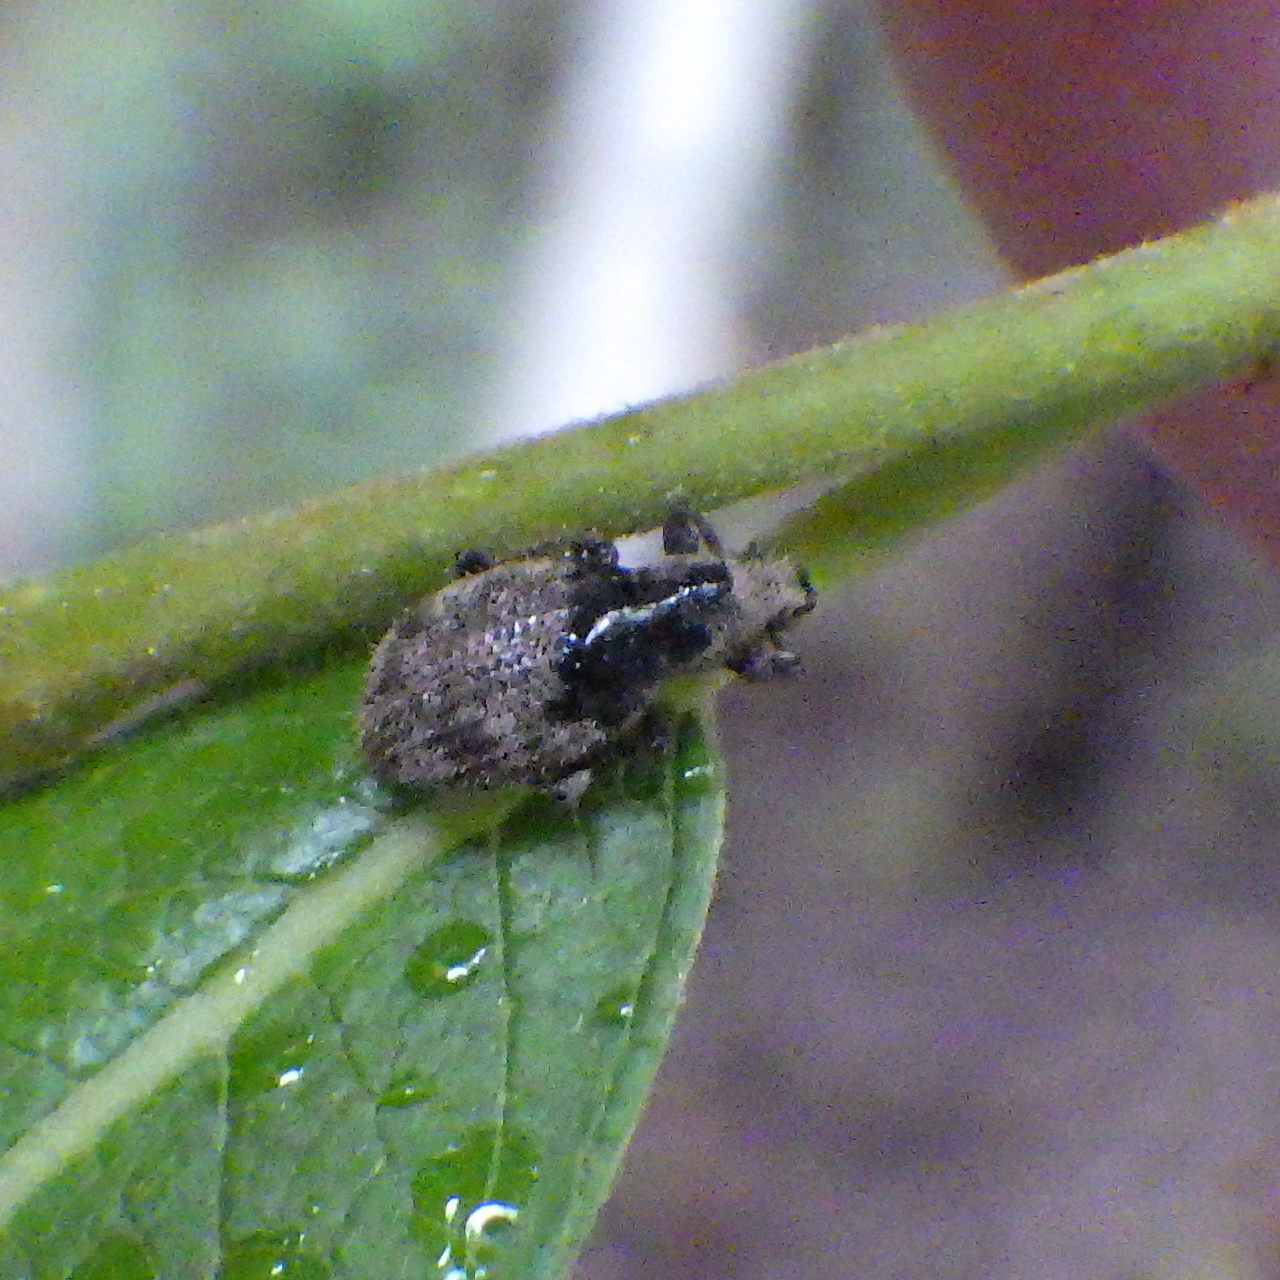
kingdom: Animalia
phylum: Arthropoda
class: Insecta
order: Coleoptera
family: Curculionidae
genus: Sciaphilus
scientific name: Sciaphilus asperatus
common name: Weevil
